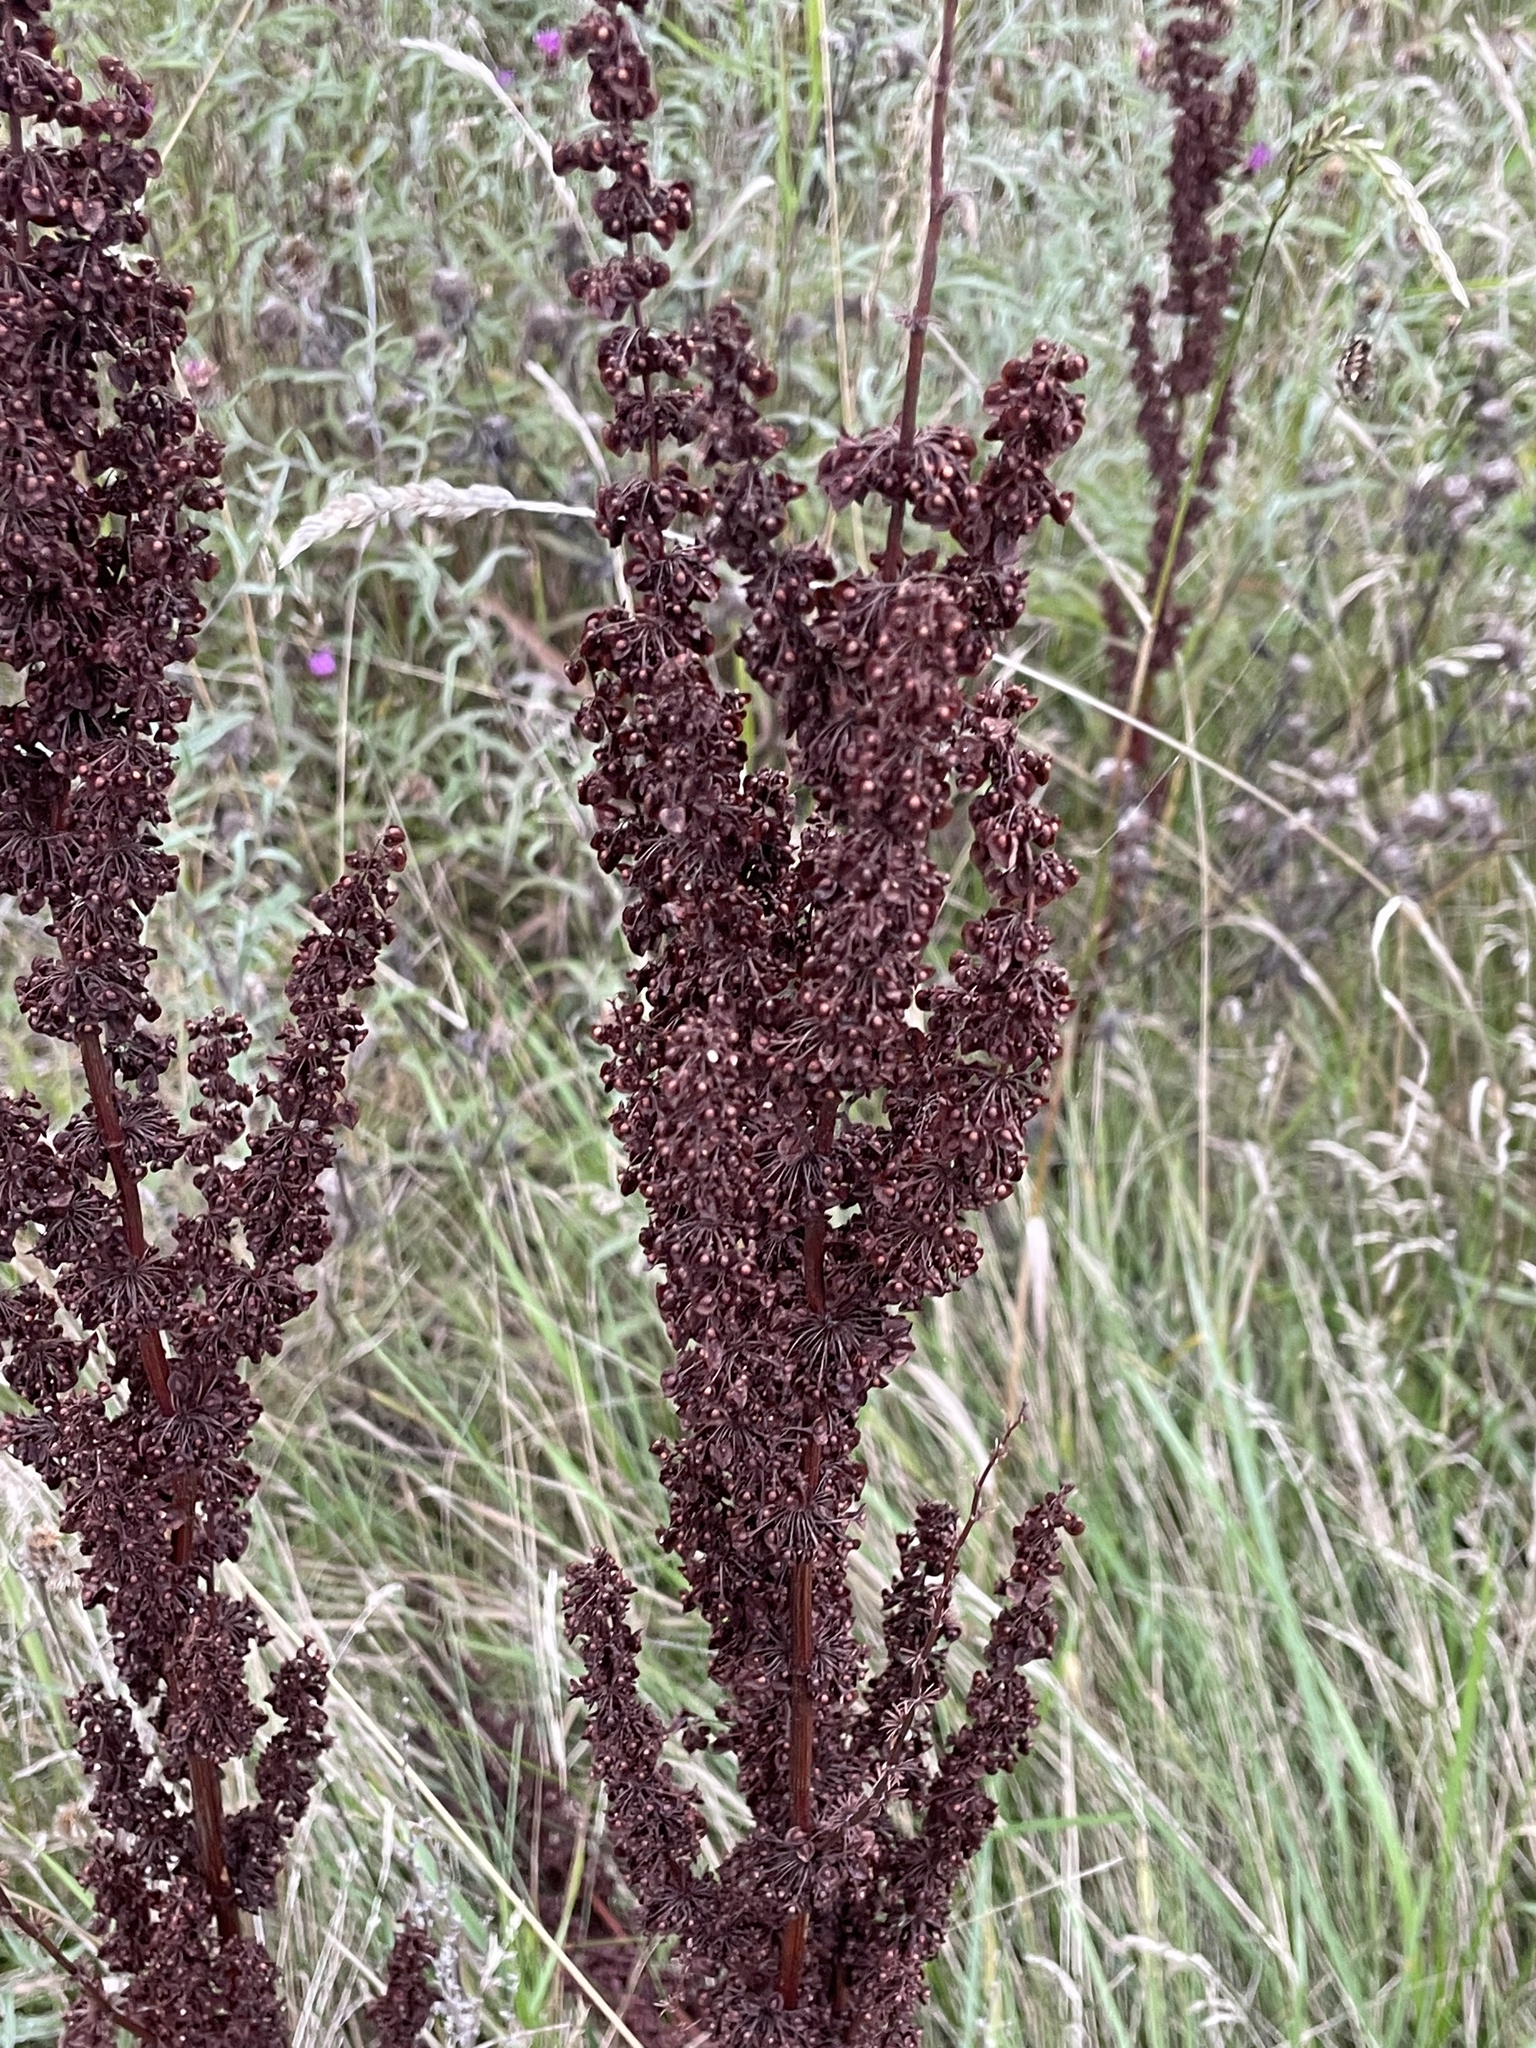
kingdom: Plantae
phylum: Tracheophyta
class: Magnoliopsida
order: Caryophyllales
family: Polygonaceae
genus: Rumex
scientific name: Rumex crispus
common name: Curled dock
